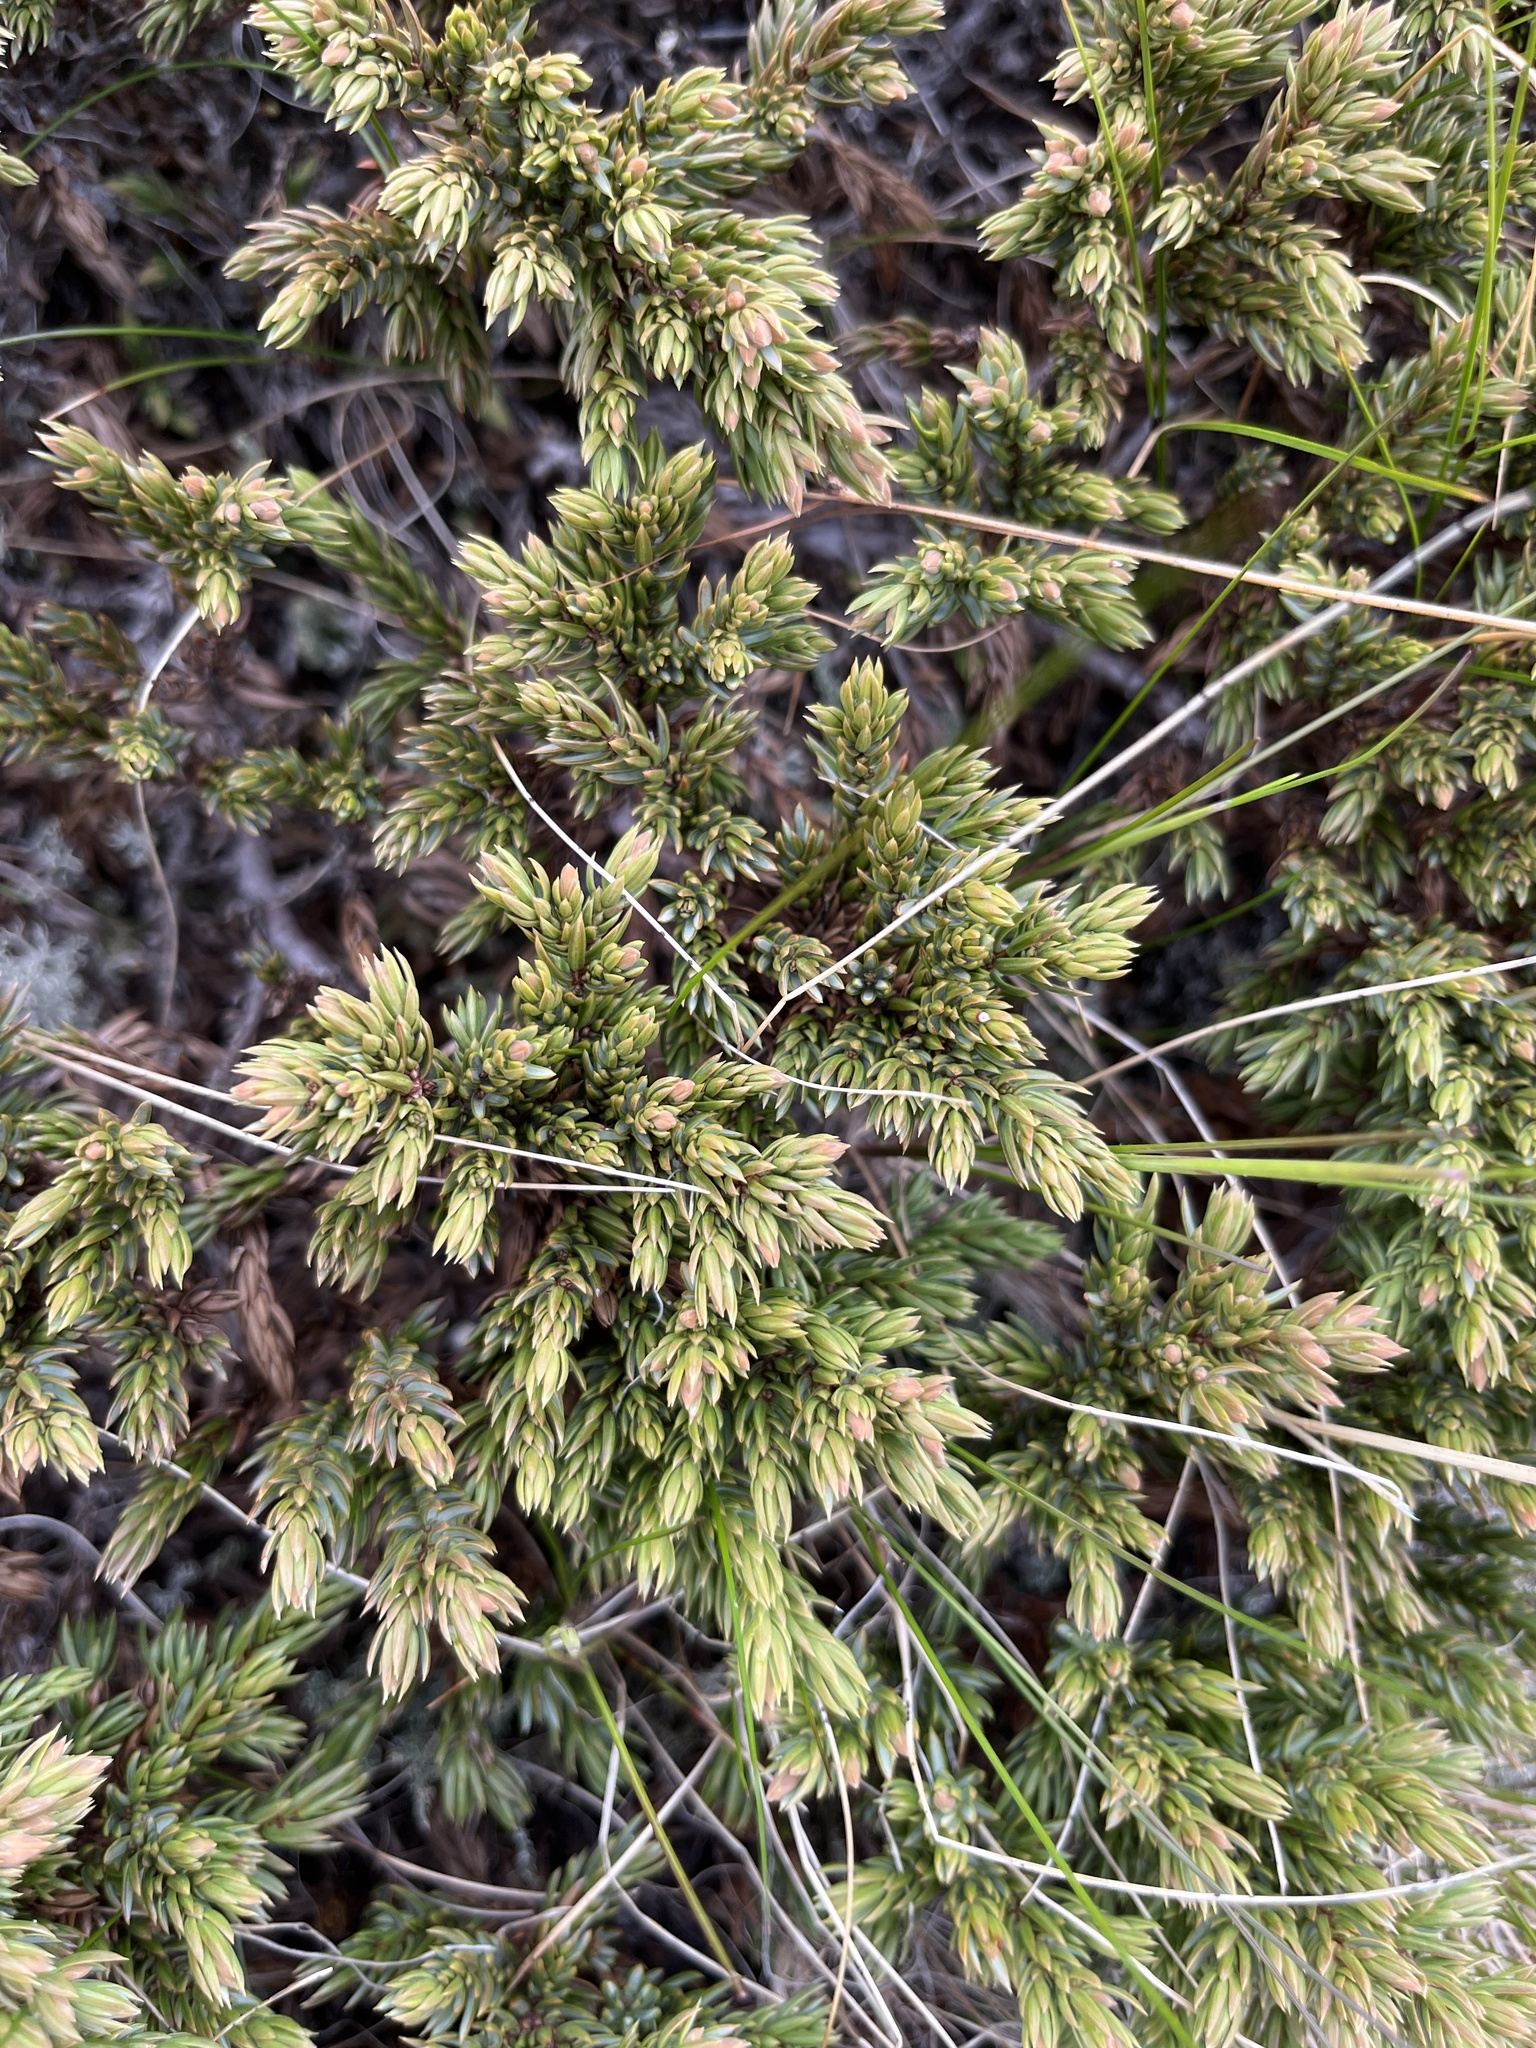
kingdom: Plantae
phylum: Tracheophyta
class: Pinopsida
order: Pinales
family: Cupressaceae
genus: Juniperus
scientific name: Juniperus communis
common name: Common juniper
